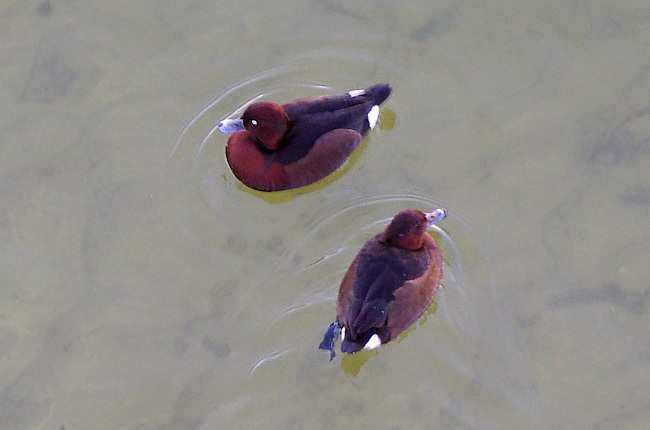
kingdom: Animalia
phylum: Chordata
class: Aves
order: Anseriformes
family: Anatidae
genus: Aythya
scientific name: Aythya nyroca
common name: Ferruginous duck
